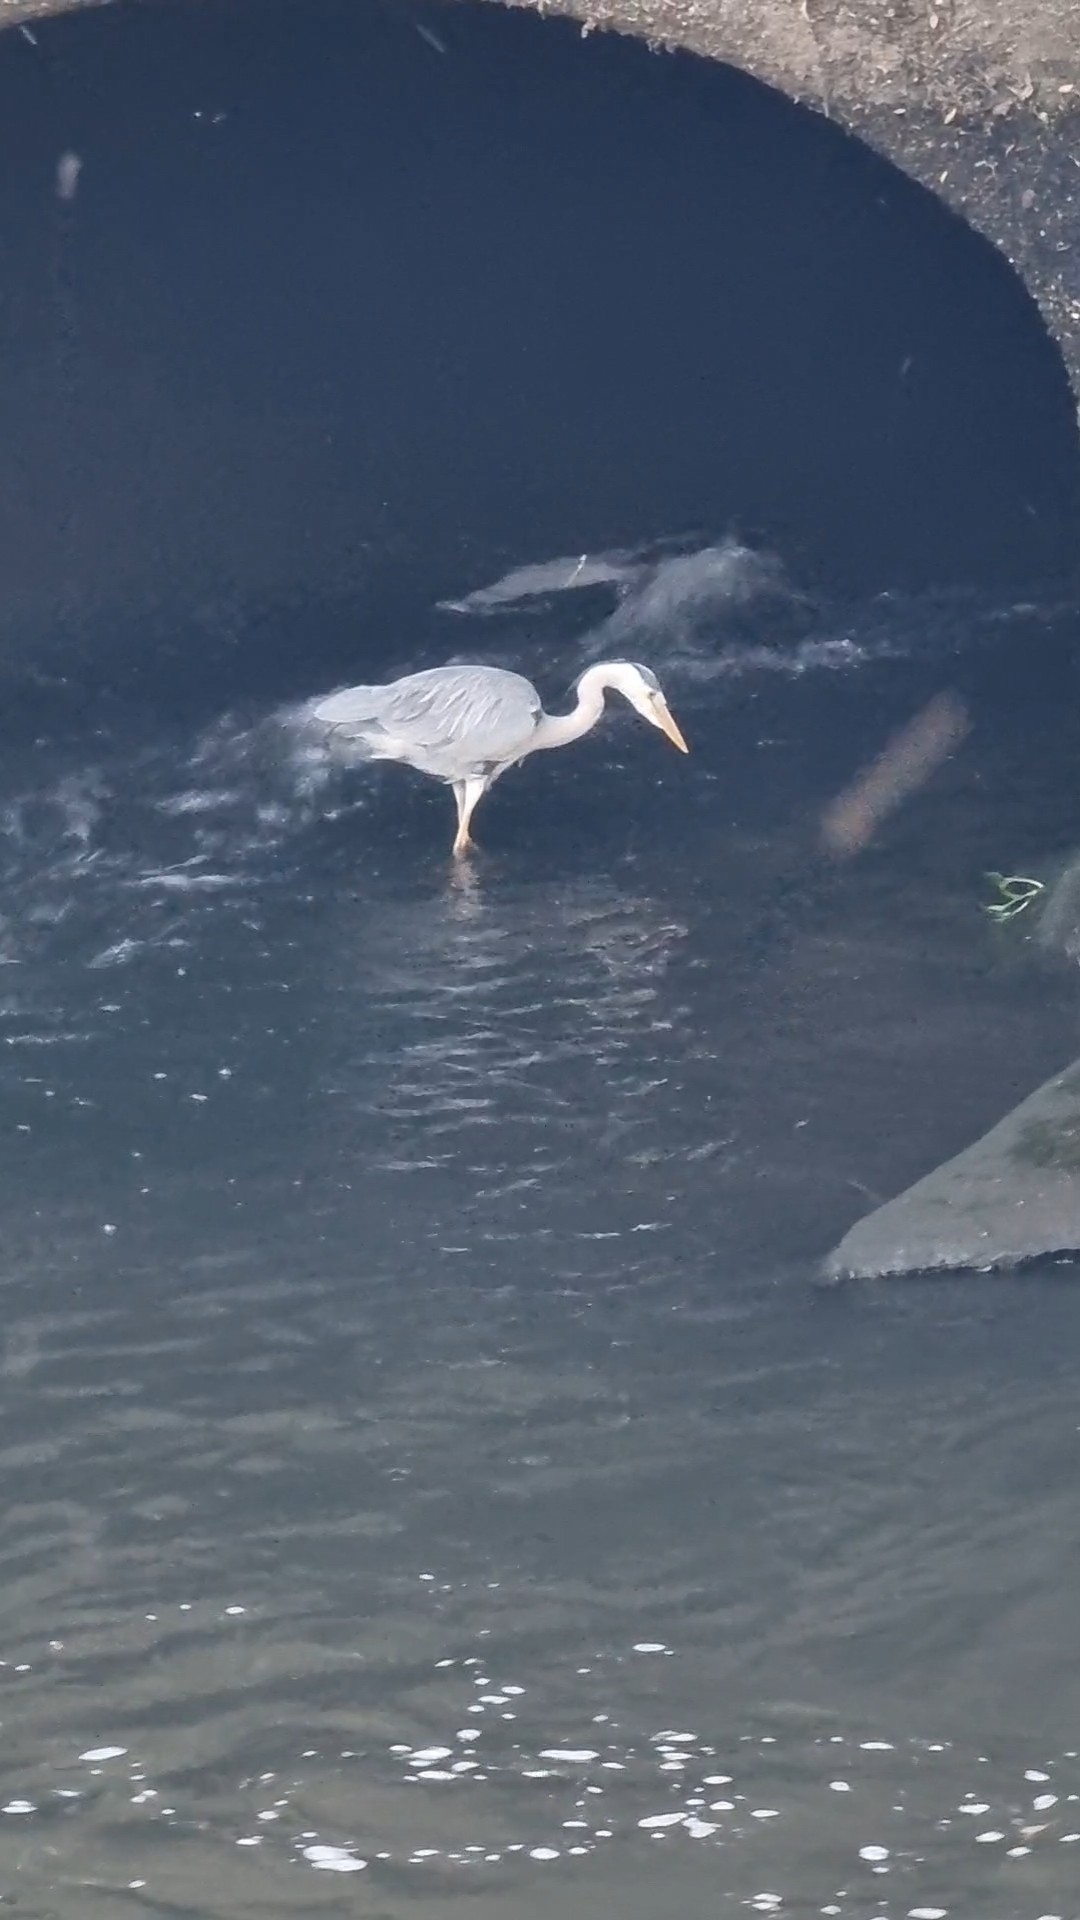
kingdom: Animalia
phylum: Chordata
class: Aves
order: Pelecaniformes
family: Ardeidae
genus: Ardea
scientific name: Ardea cinerea
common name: Grey heron
